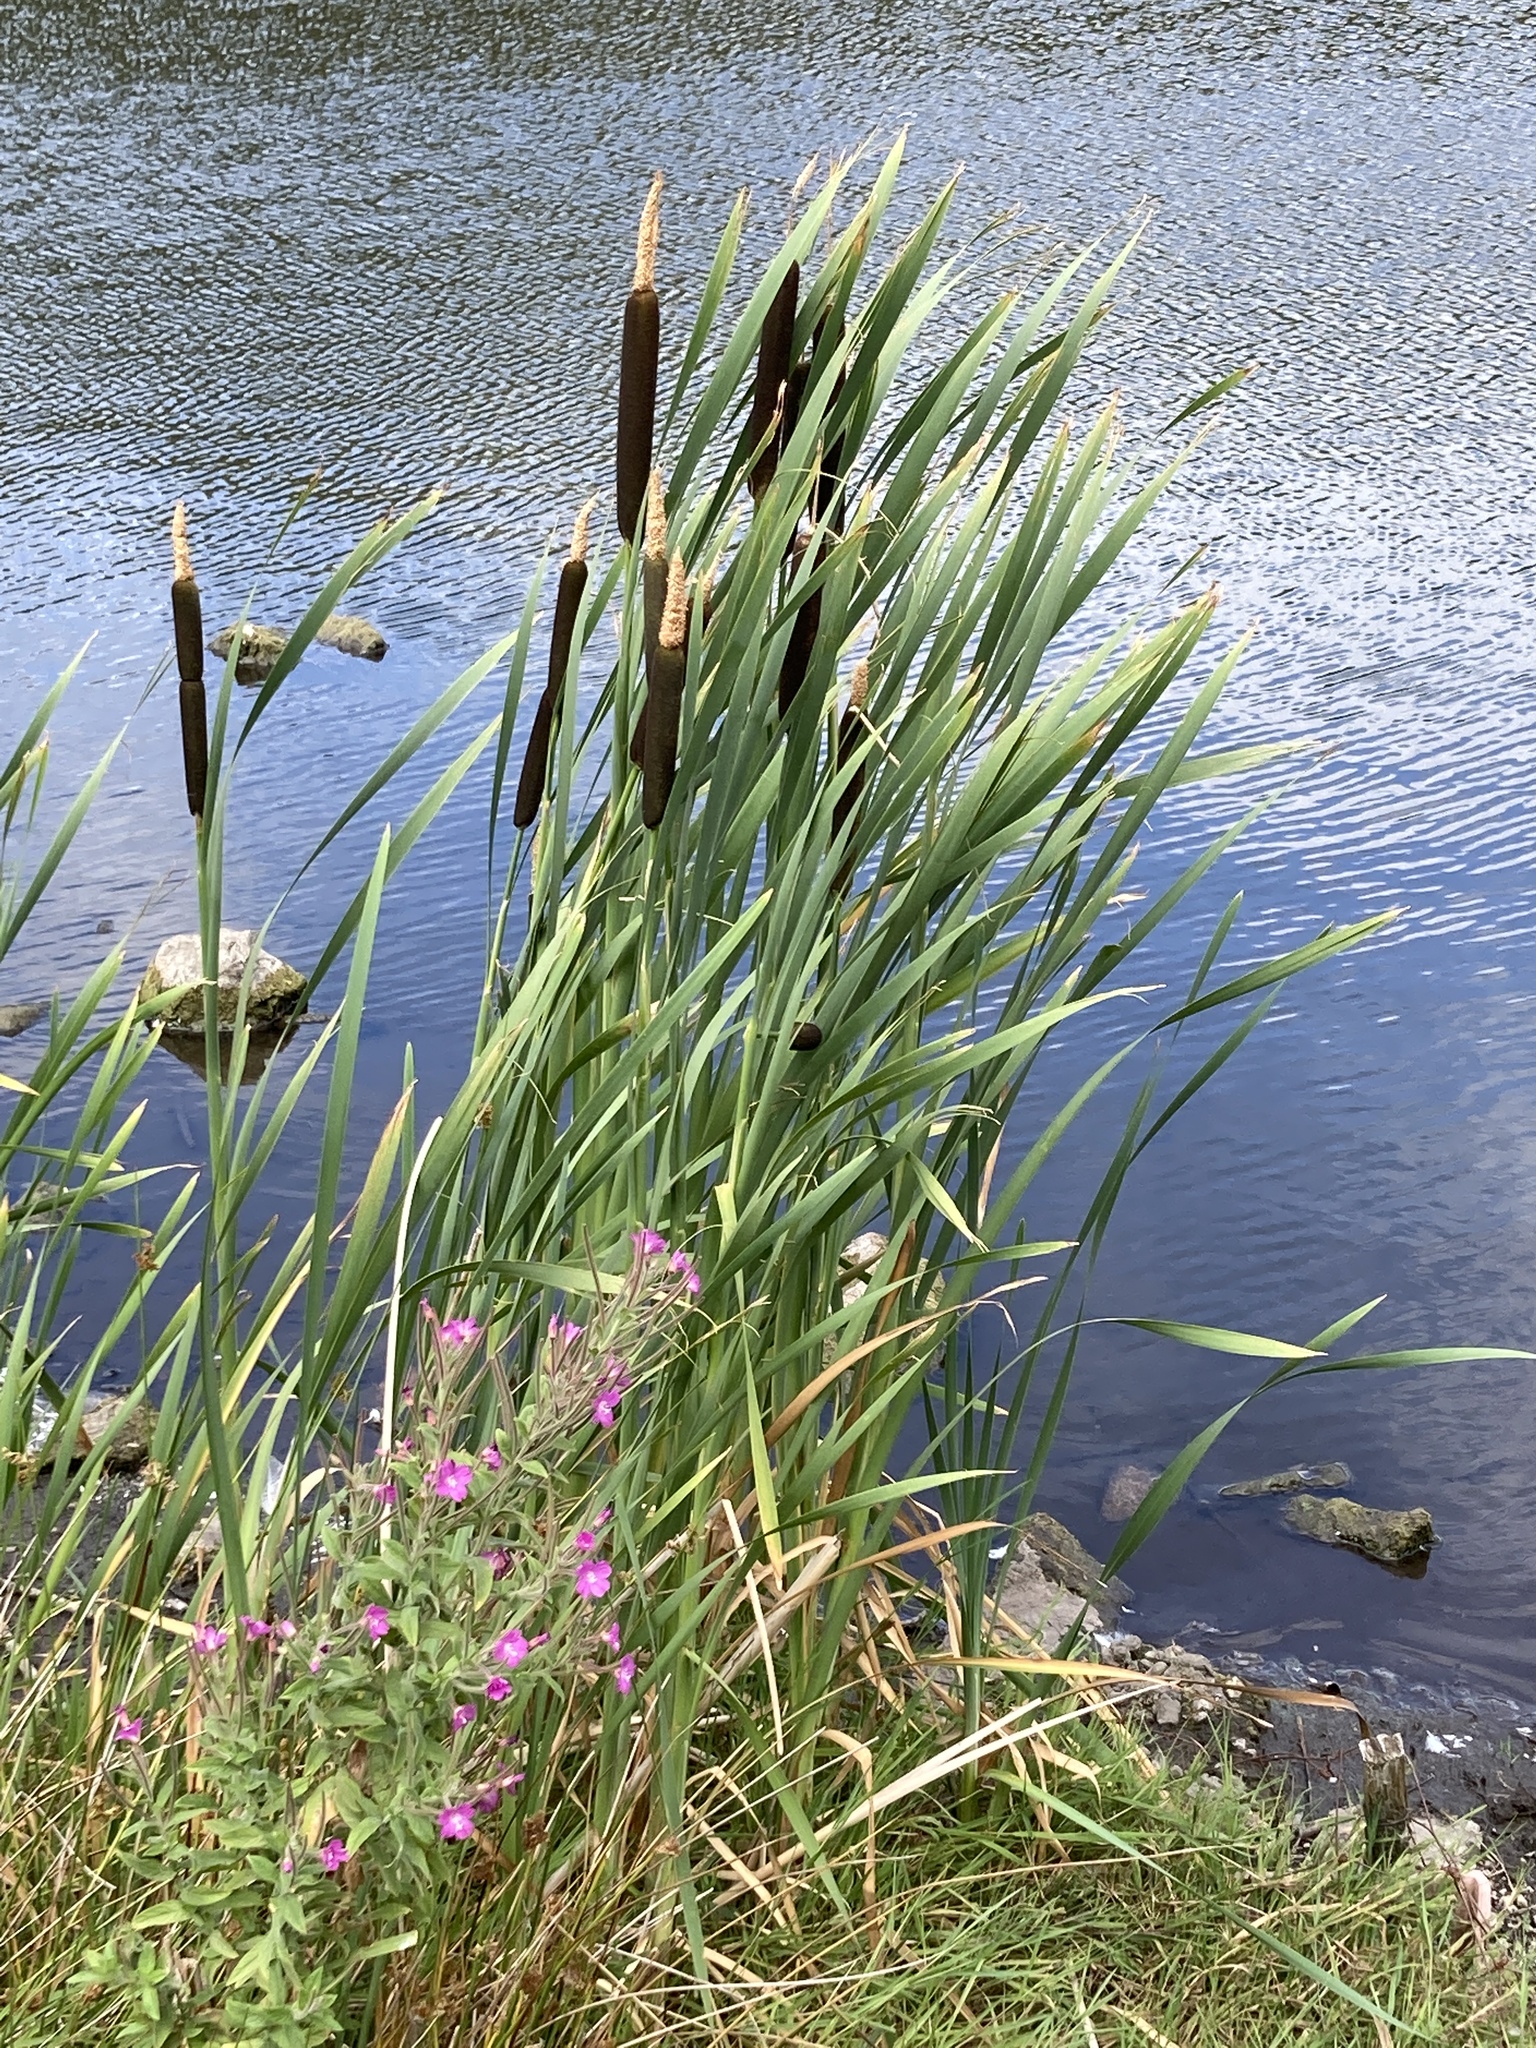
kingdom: Plantae
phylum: Tracheophyta
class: Liliopsida
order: Poales
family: Typhaceae
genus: Typha
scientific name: Typha latifolia
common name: Broadleaf cattail
